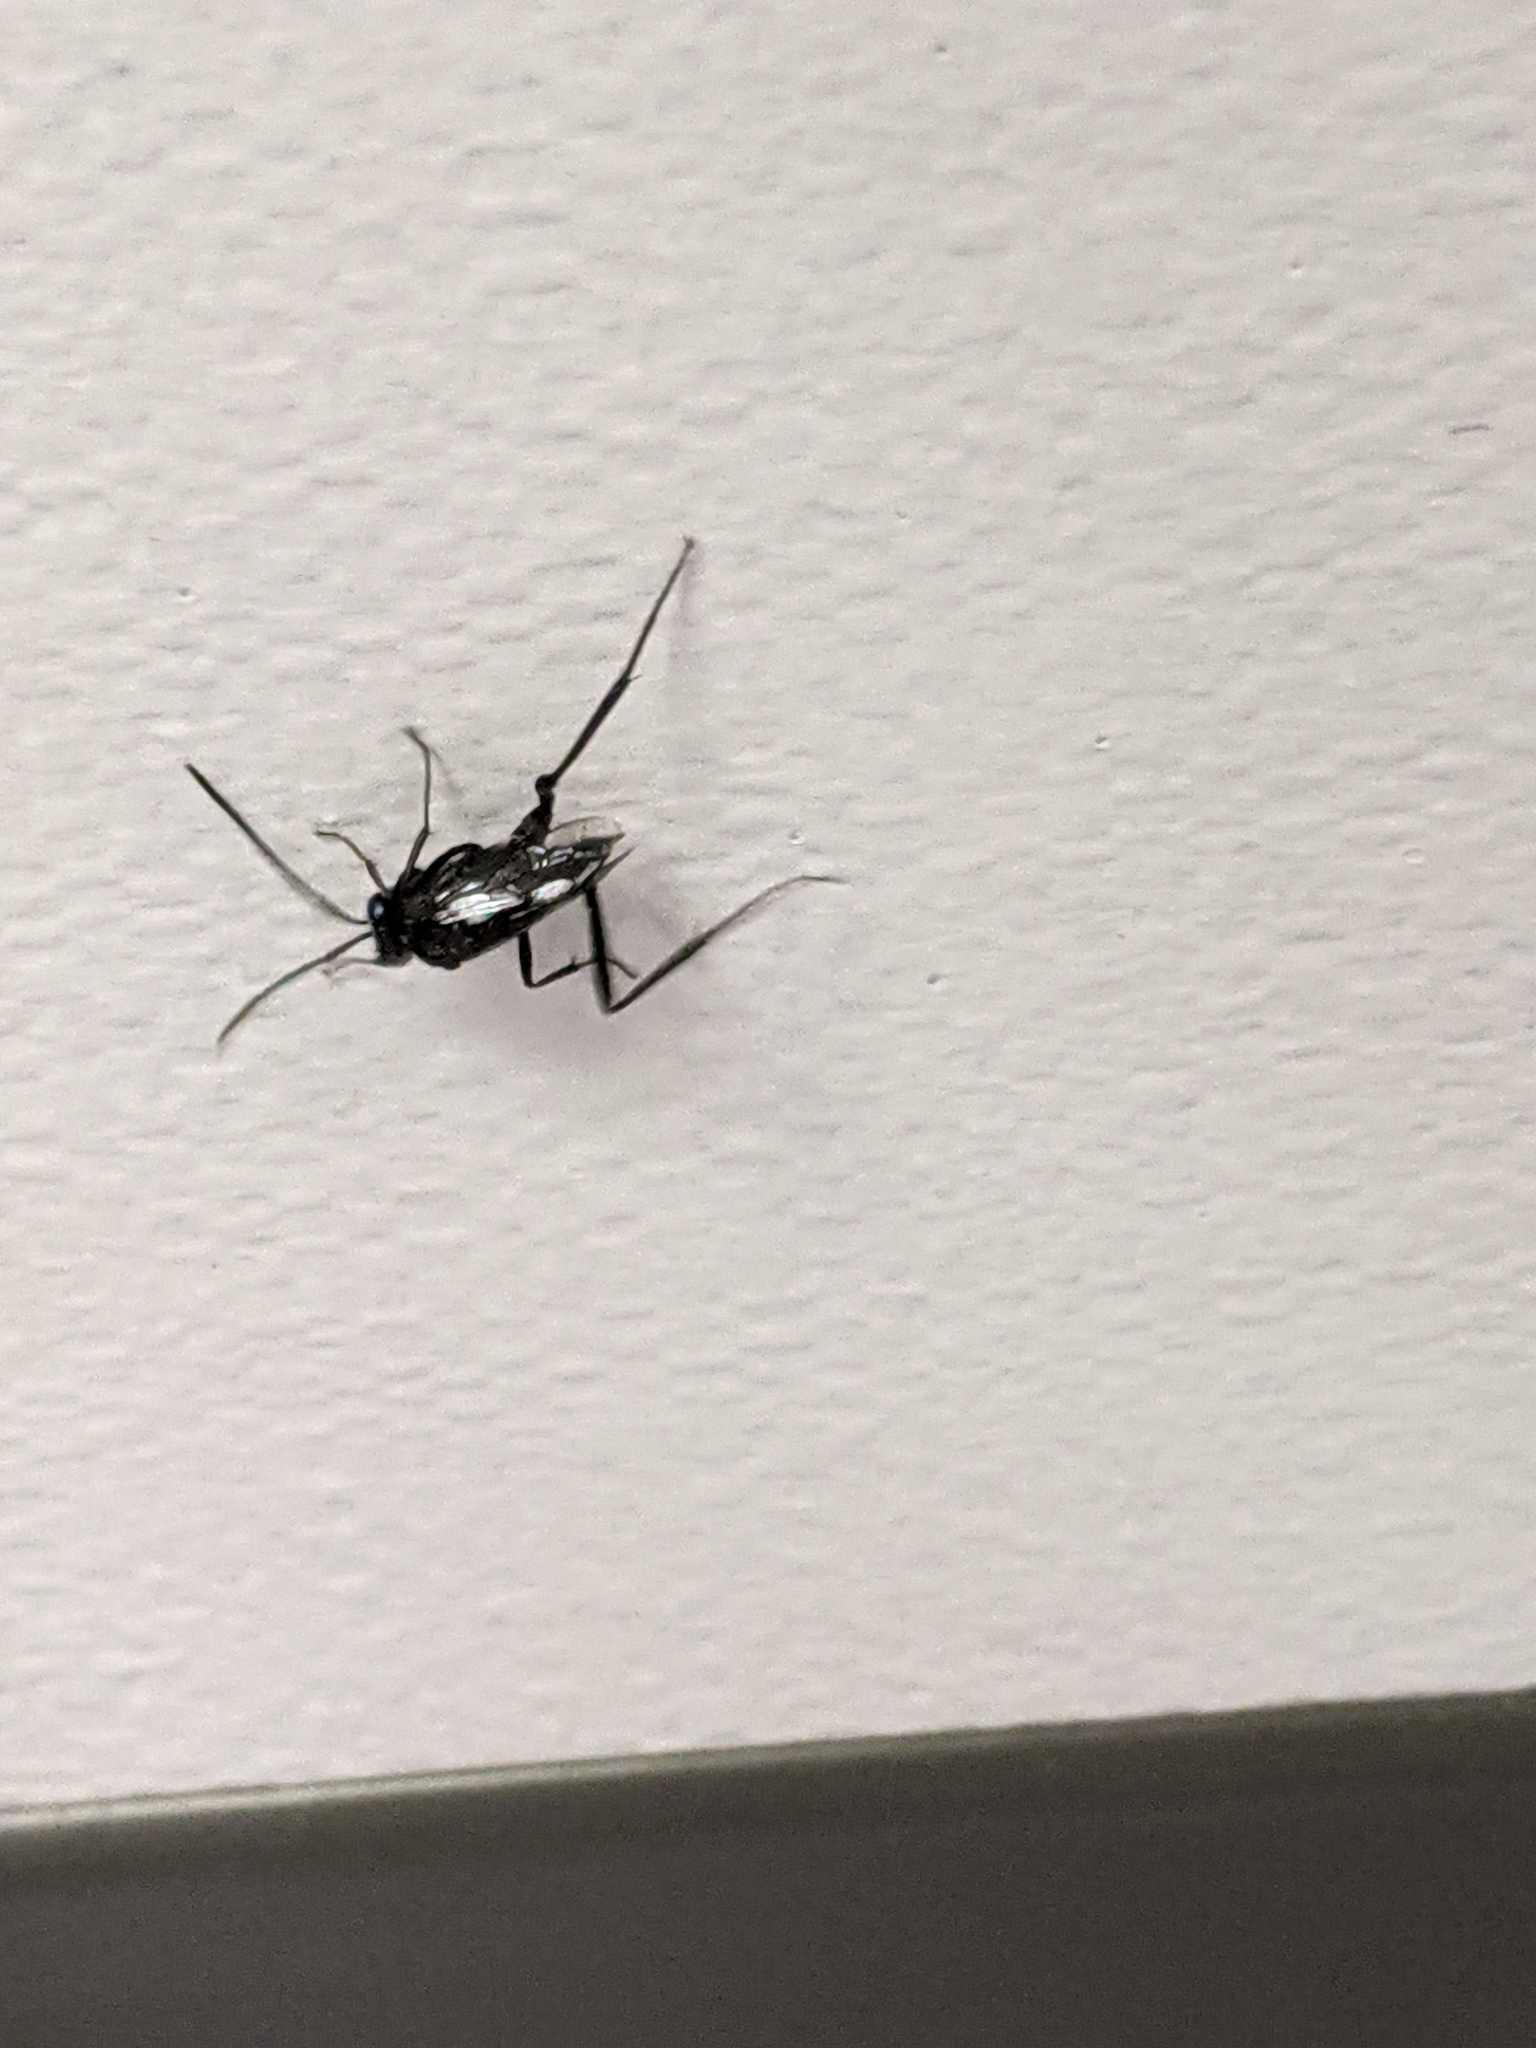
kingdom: Animalia
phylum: Arthropoda
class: Insecta
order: Hymenoptera
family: Evaniidae
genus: Evania
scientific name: Evania appendigaster
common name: Ensign wasp
